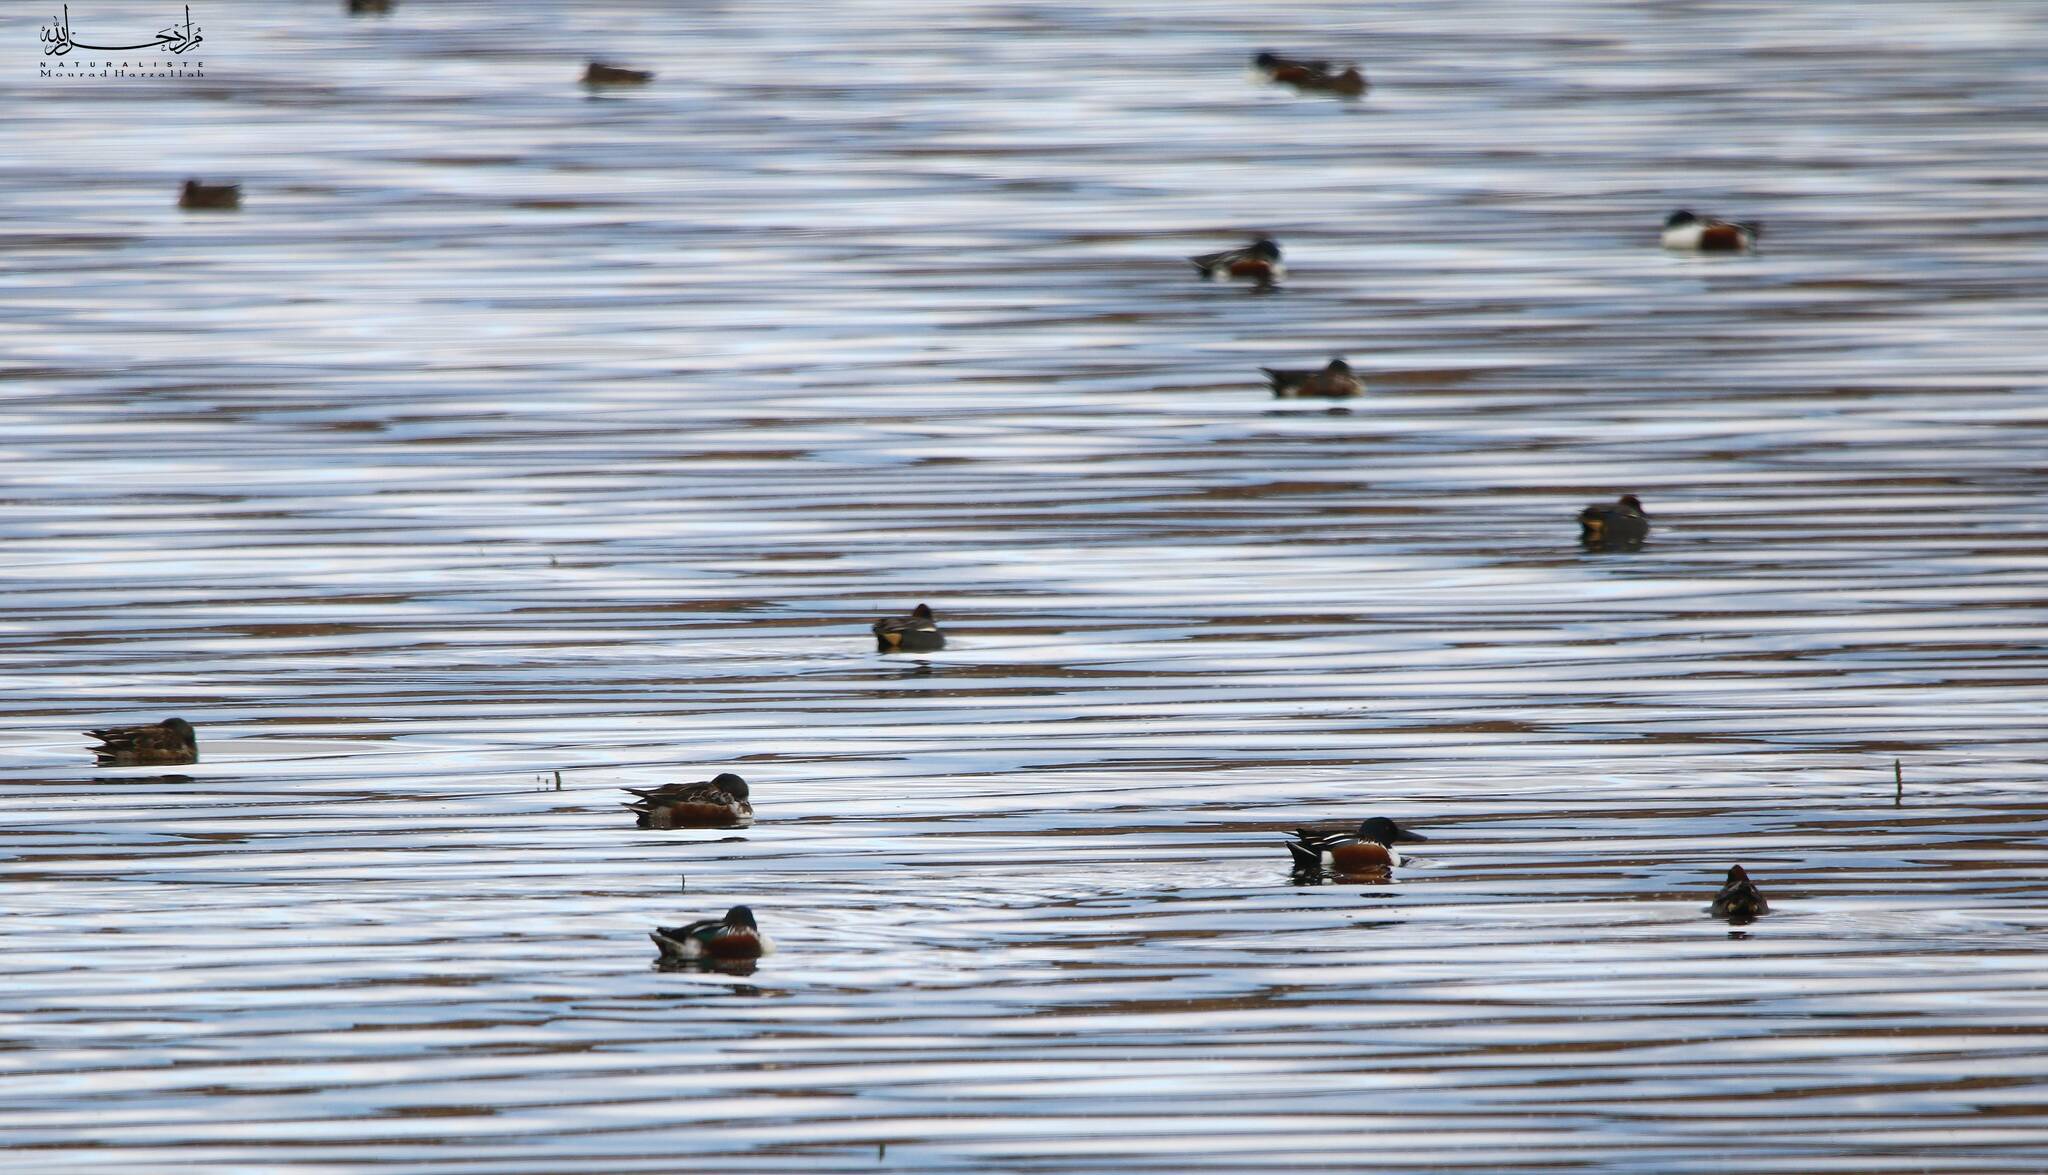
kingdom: Animalia
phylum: Chordata
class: Aves
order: Anseriformes
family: Anatidae
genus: Spatula
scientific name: Spatula clypeata
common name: Northern shoveler
